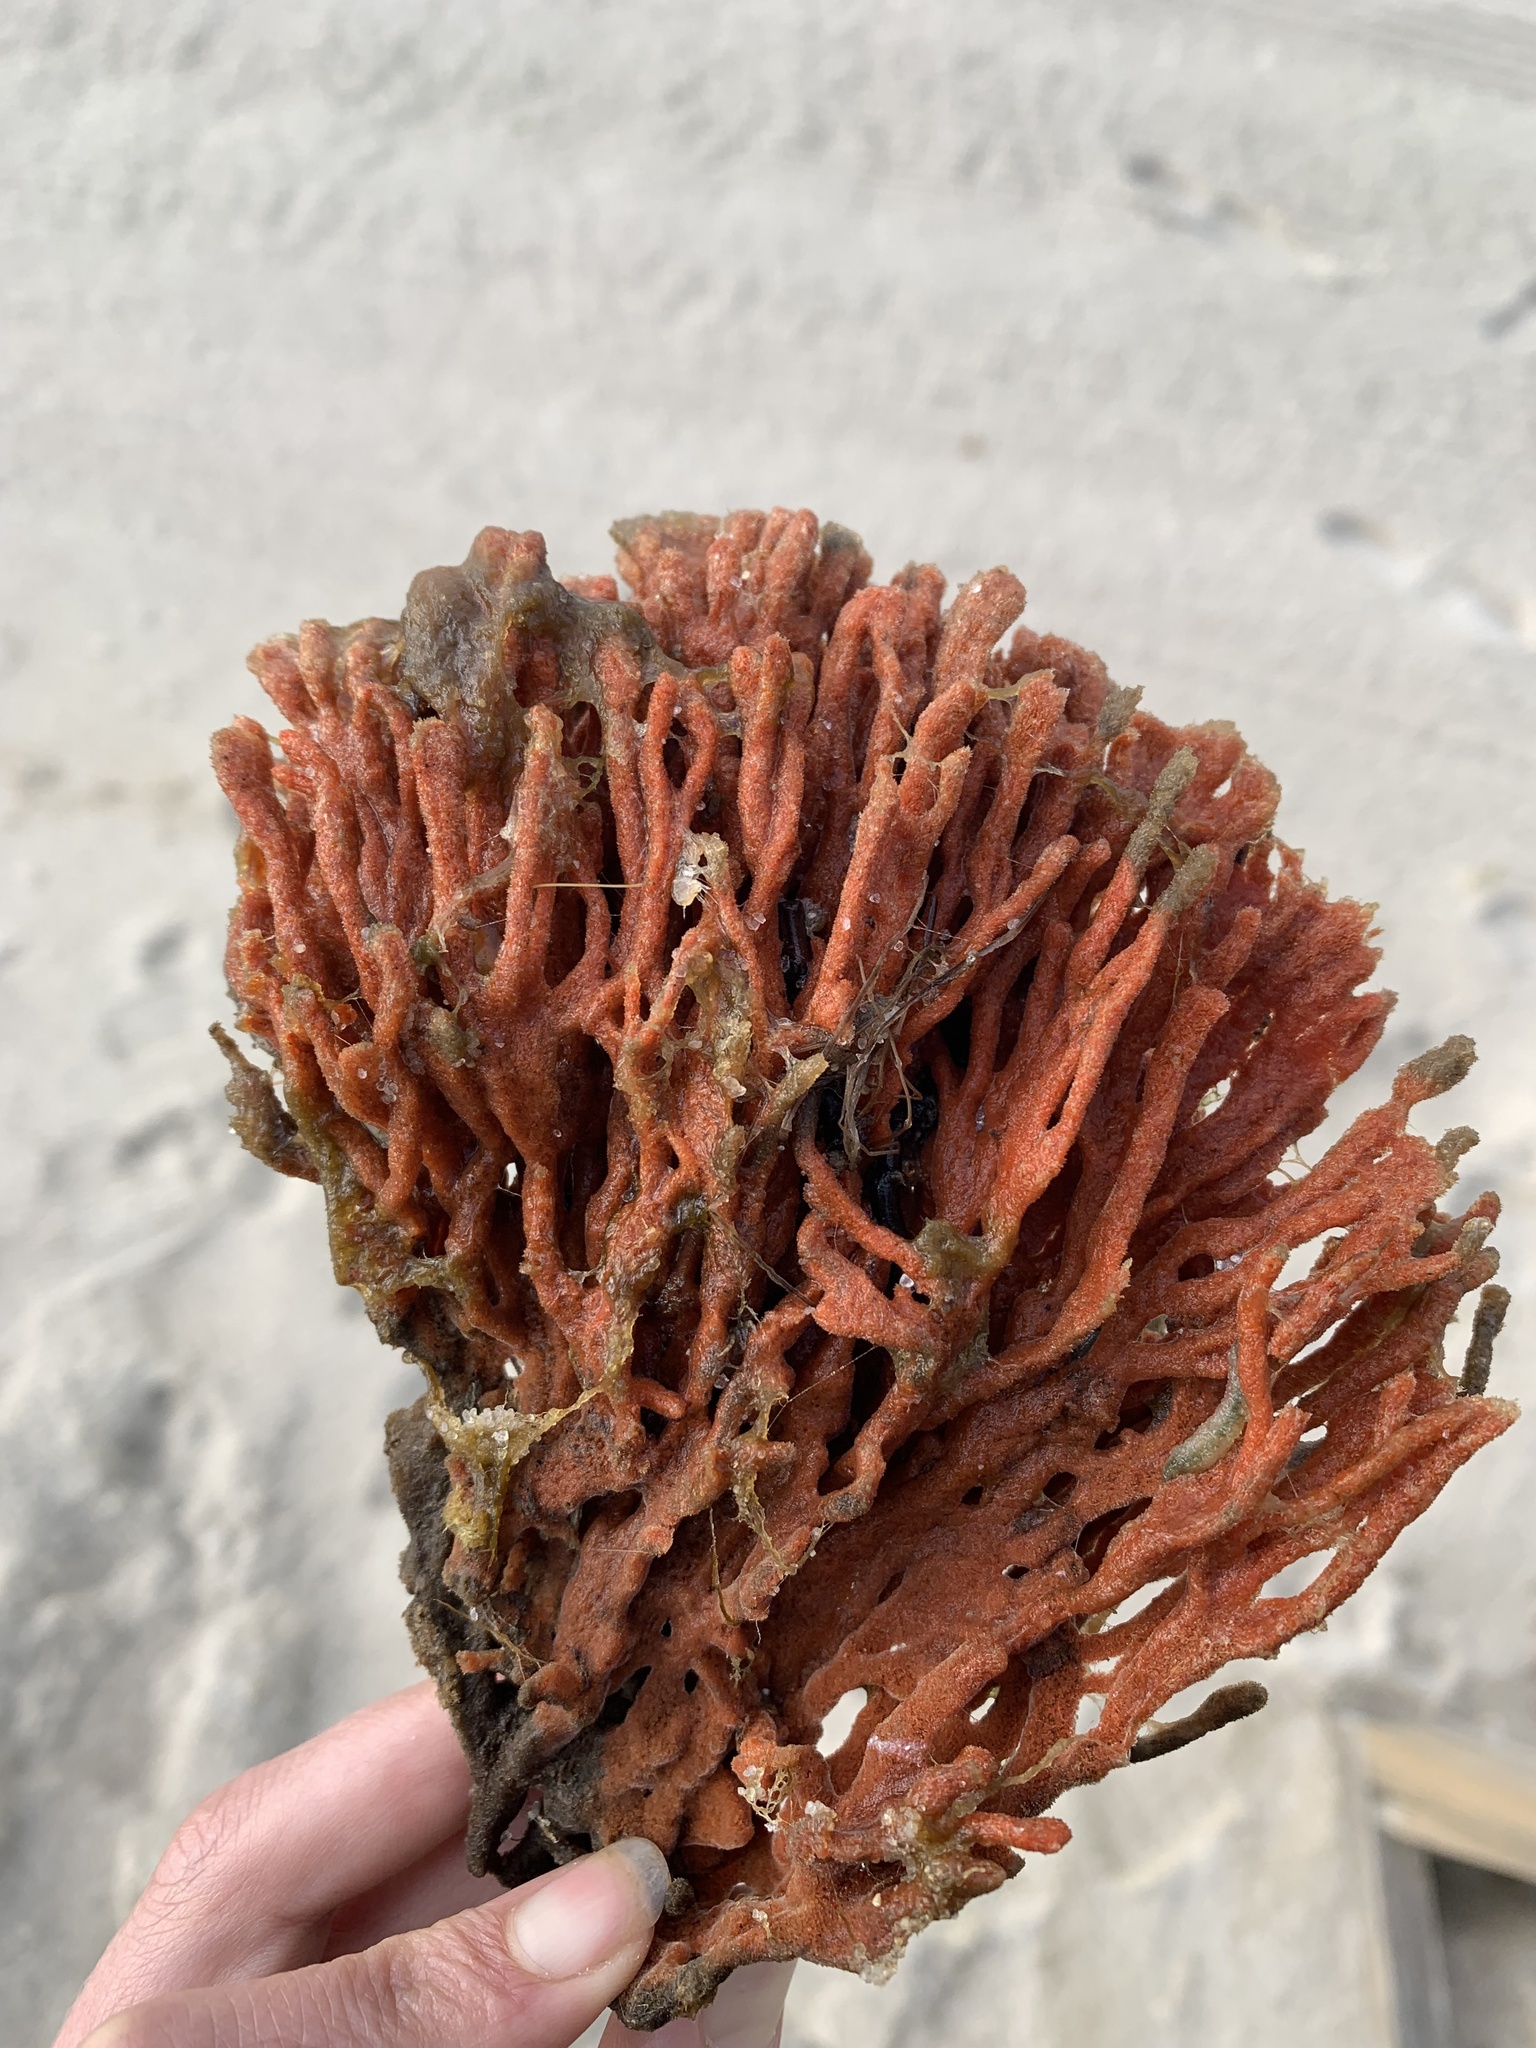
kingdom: Animalia
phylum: Porifera
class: Demospongiae
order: Poecilosclerida
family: Microcionidae
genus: Clathria
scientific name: Clathria prolifera
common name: Red beard sponge
